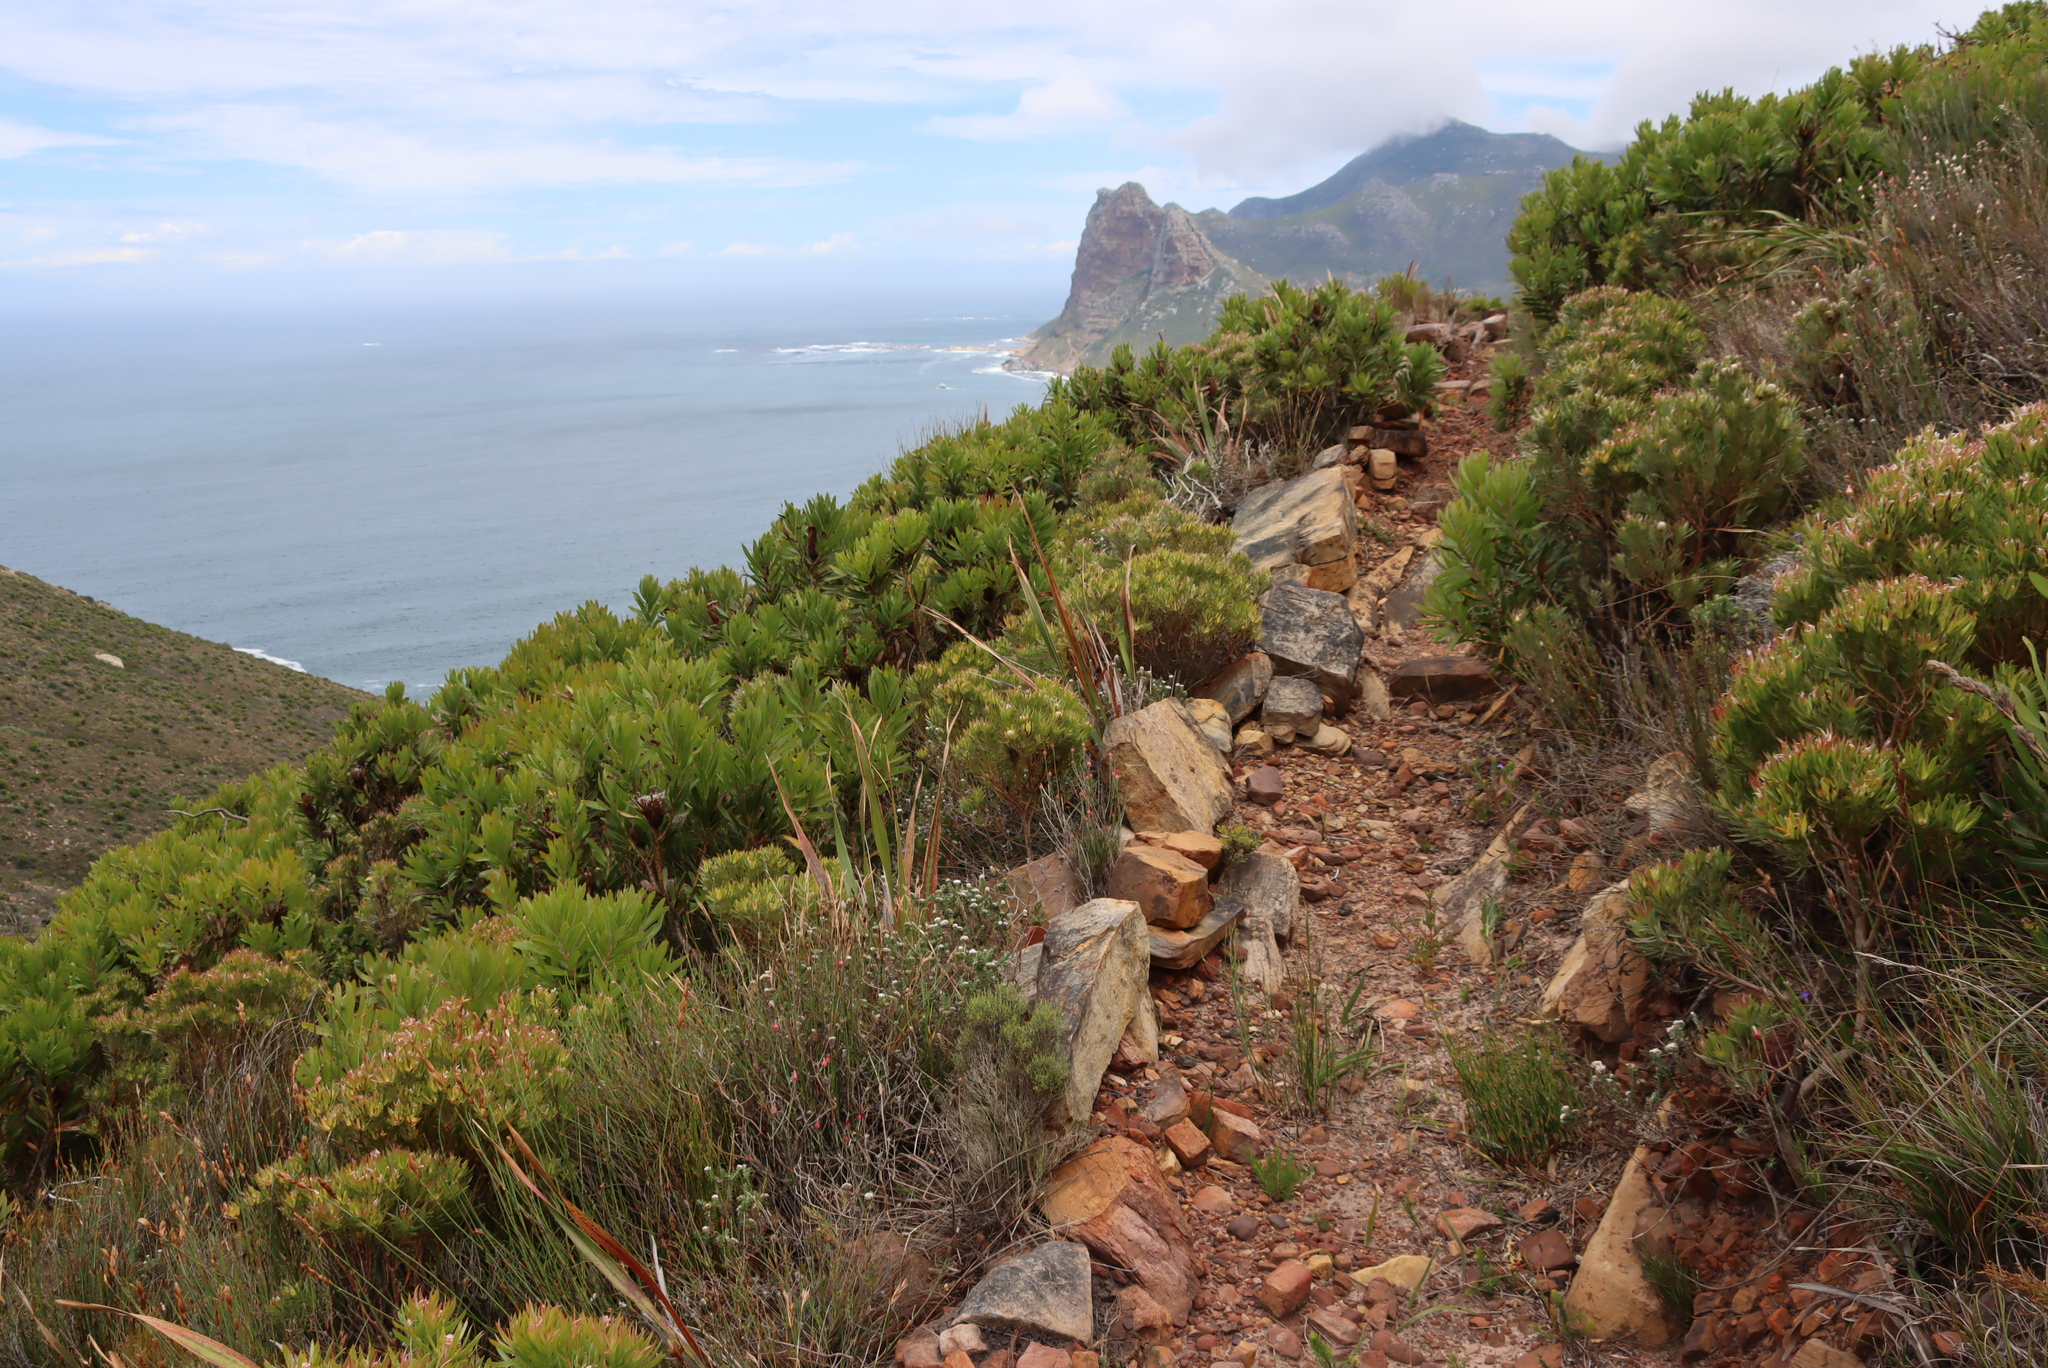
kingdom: Plantae
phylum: Tracheophyta
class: Magnoliopsida
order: Proteales
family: Proteaceae
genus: Leucadendron
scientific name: Leucadendron xanthoconus
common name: Sickle-leaf conebush
